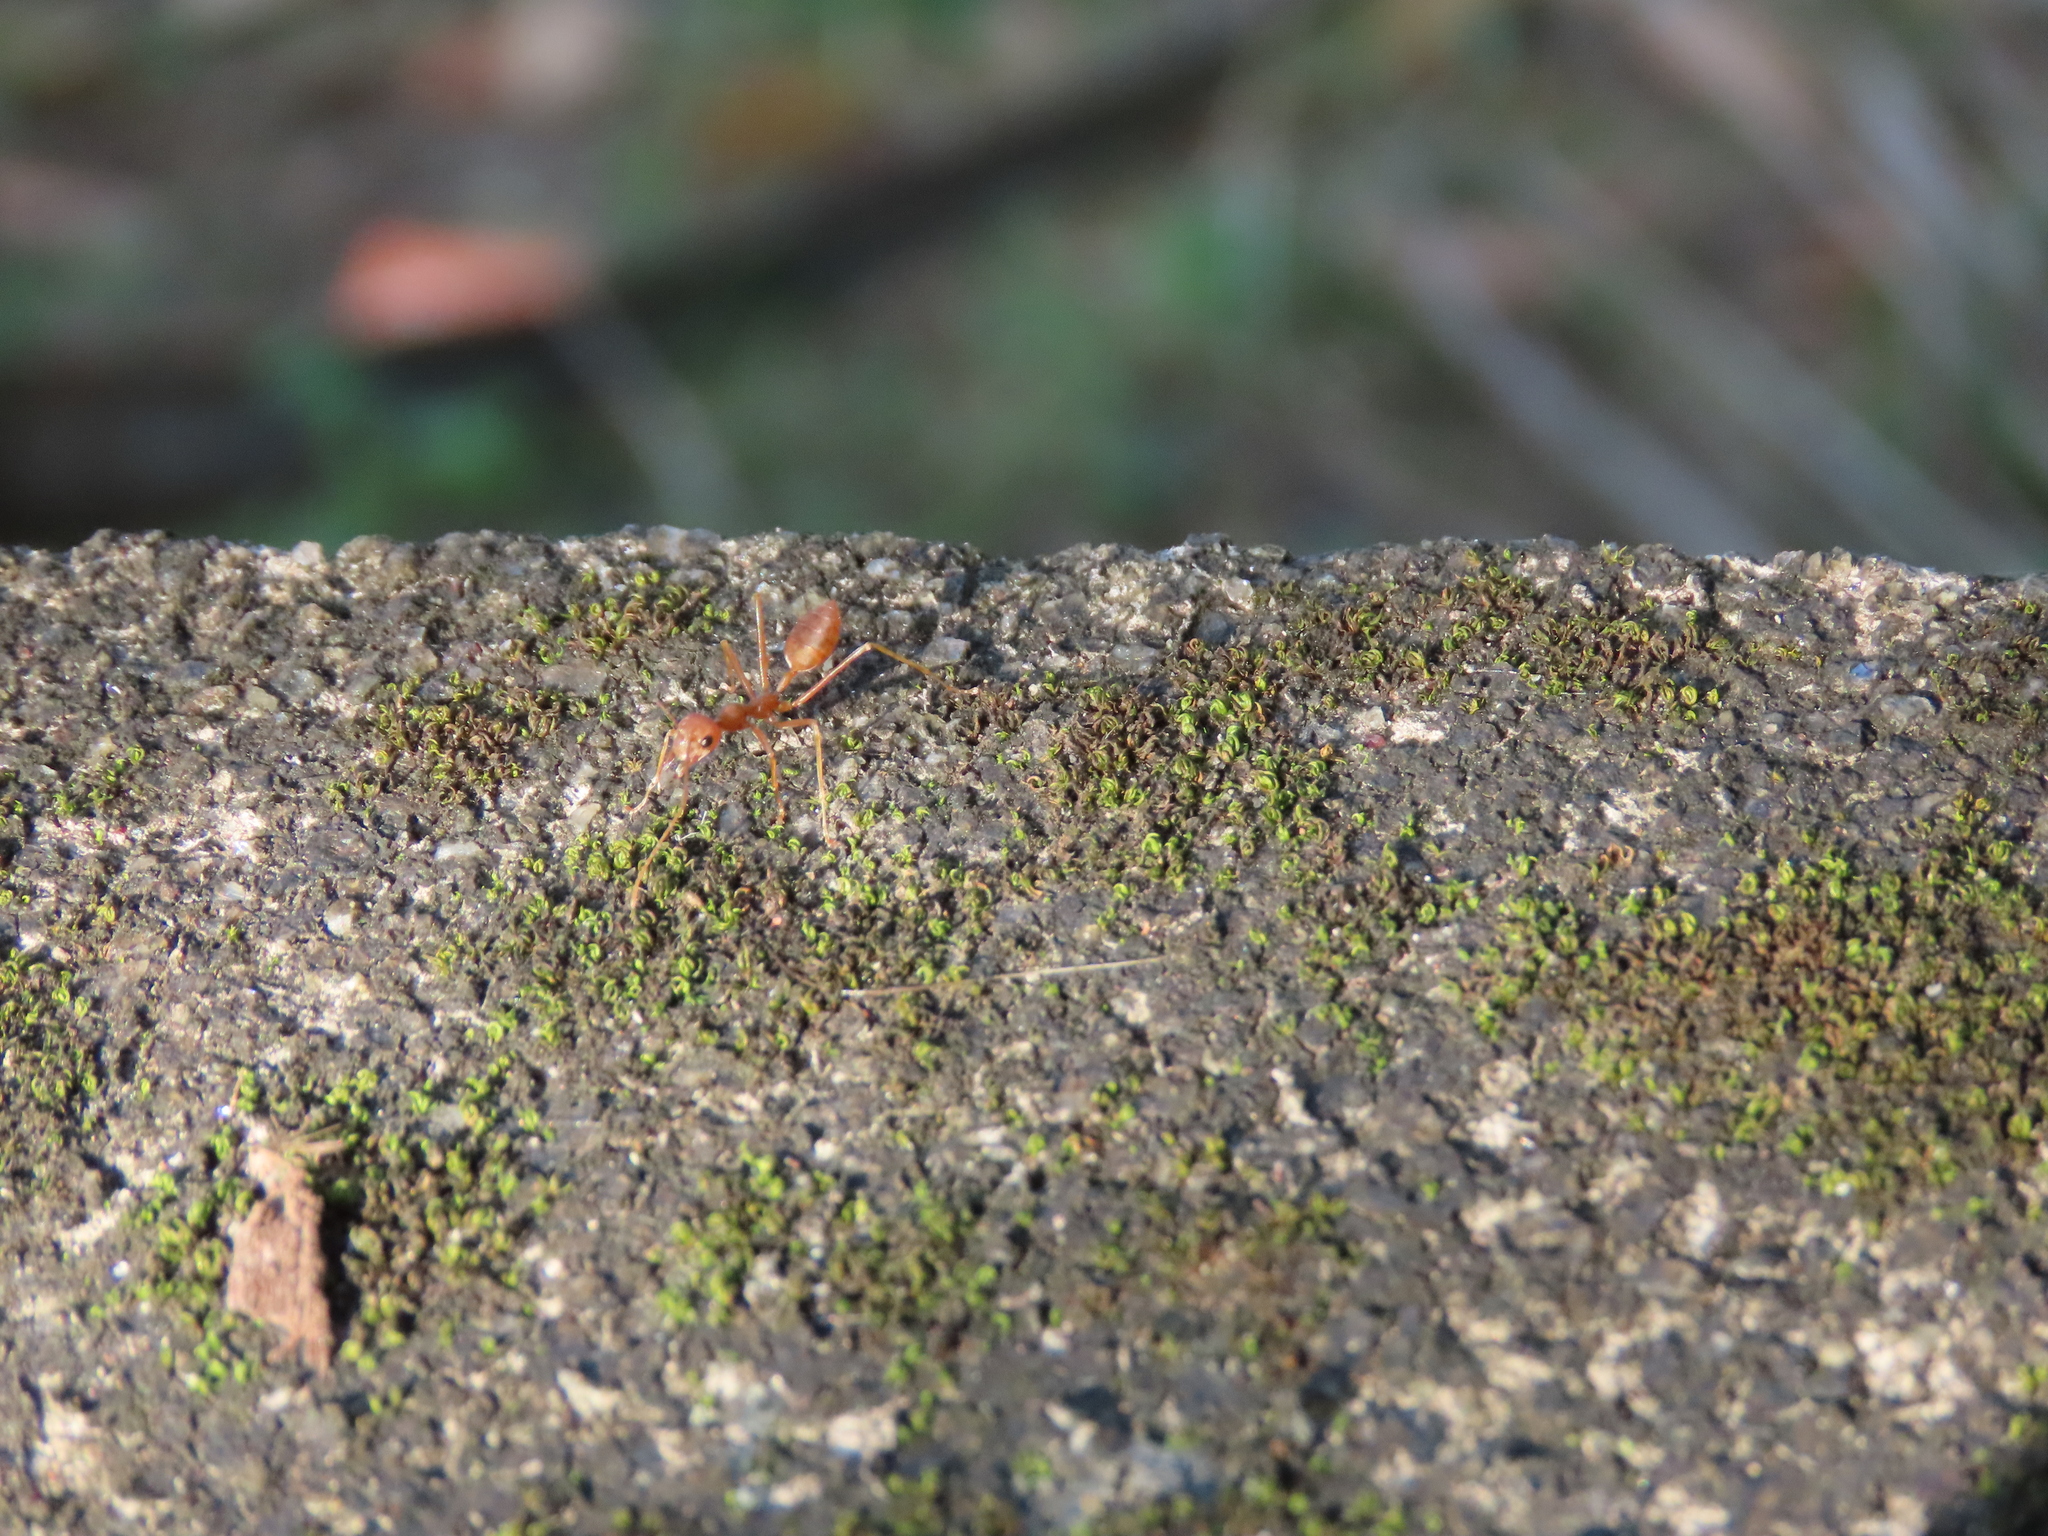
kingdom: Animalia
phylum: Arthropoda
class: Insecta
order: Hymenoptera
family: Formicidae
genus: Oecophylla
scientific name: Oecophylla smaragdina
